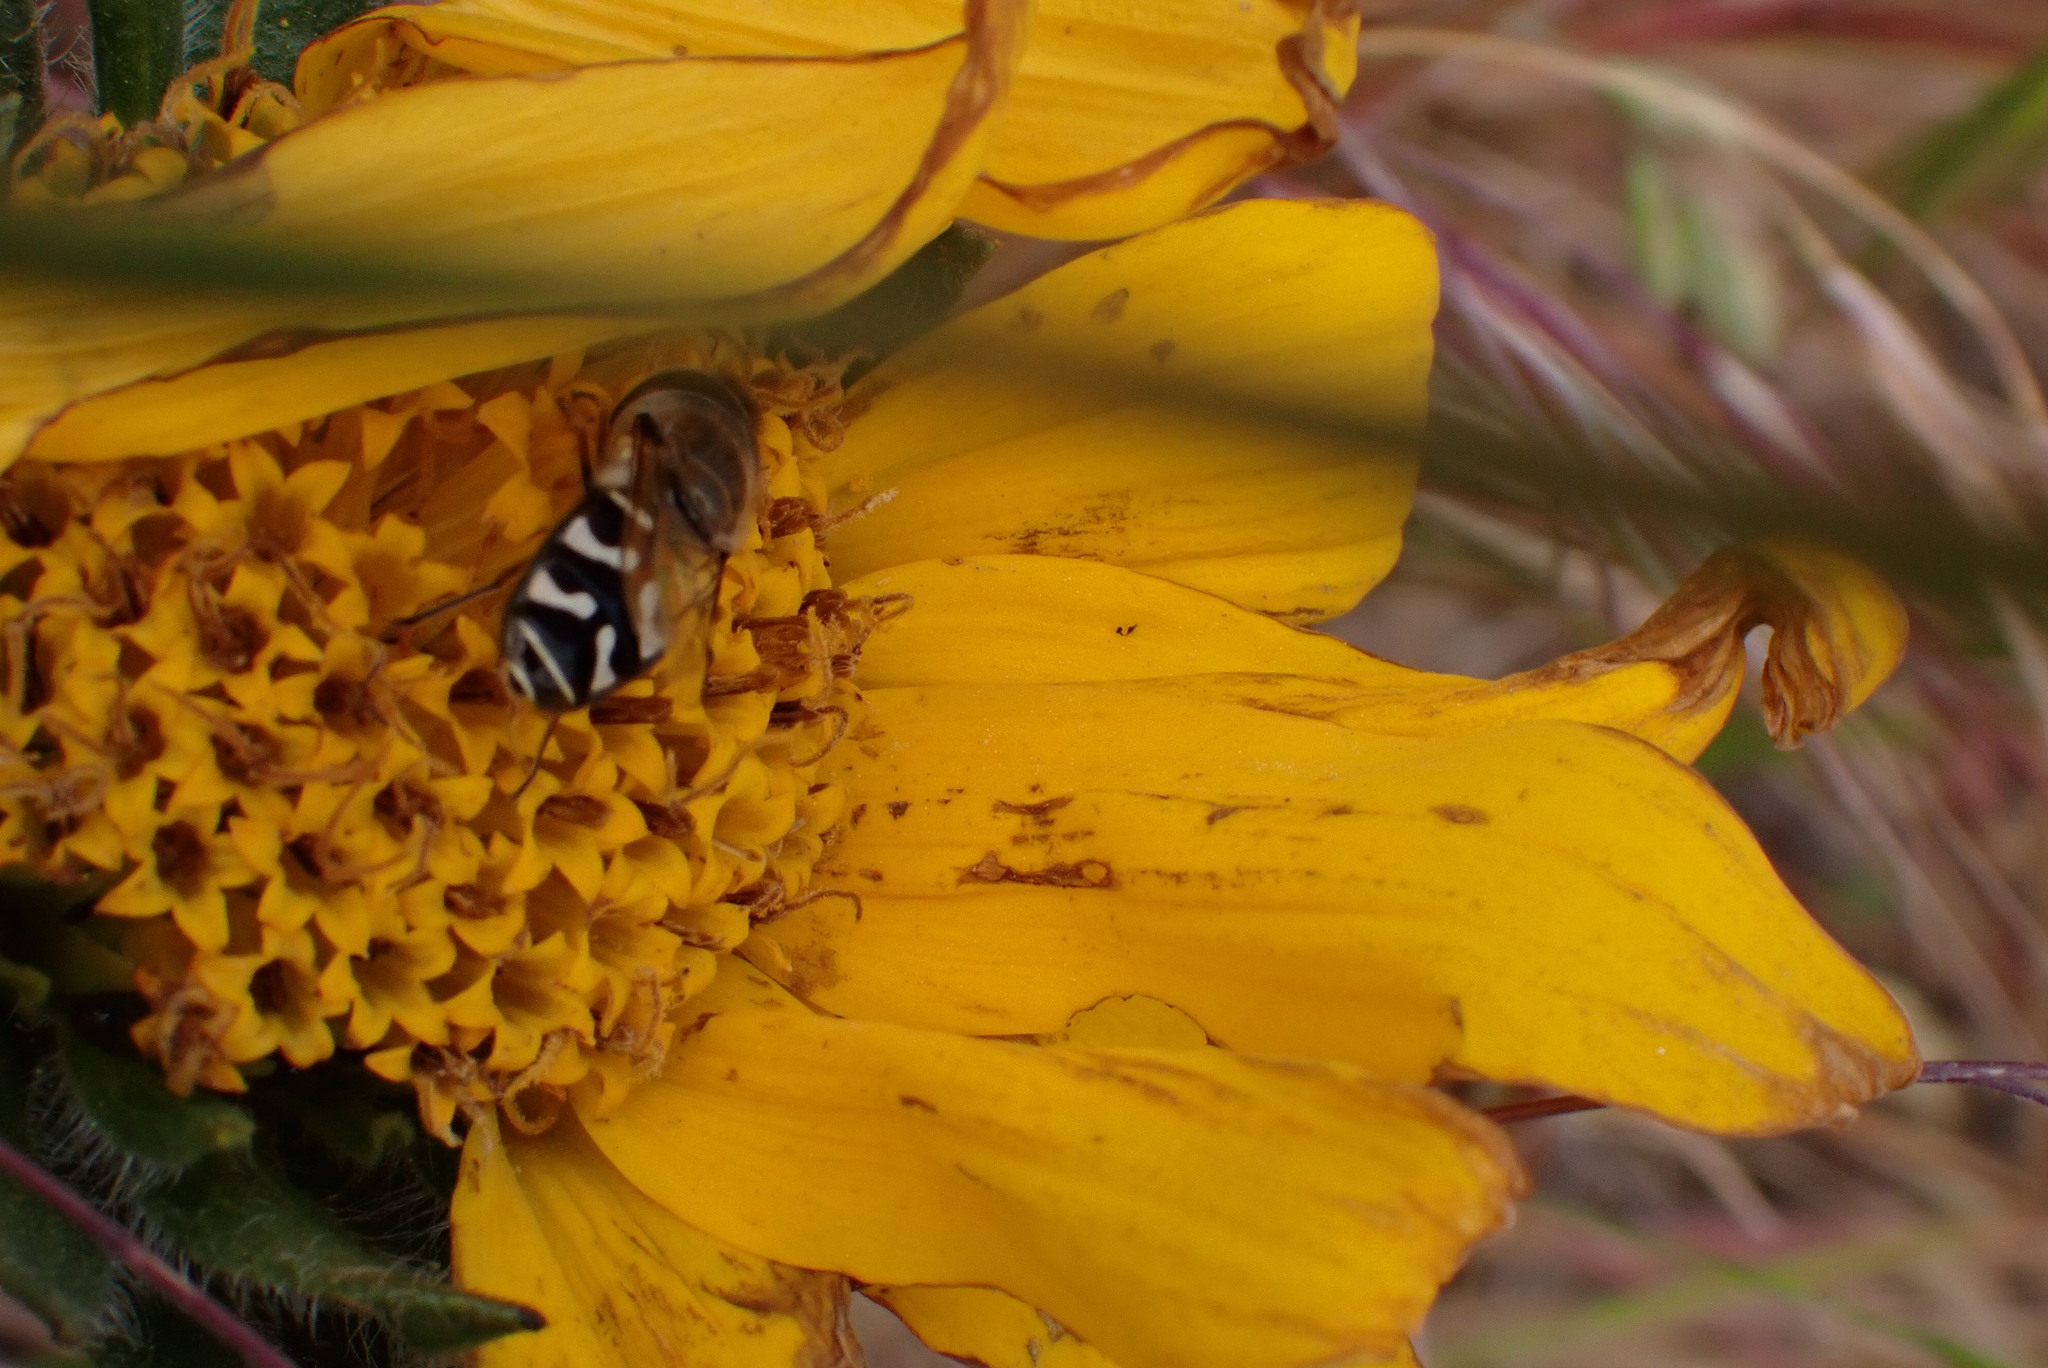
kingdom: Animalia
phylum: Arthropoda
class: Insecta
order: Diptera
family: Syrphidae
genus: Scaeva
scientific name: Scaeva affinis
